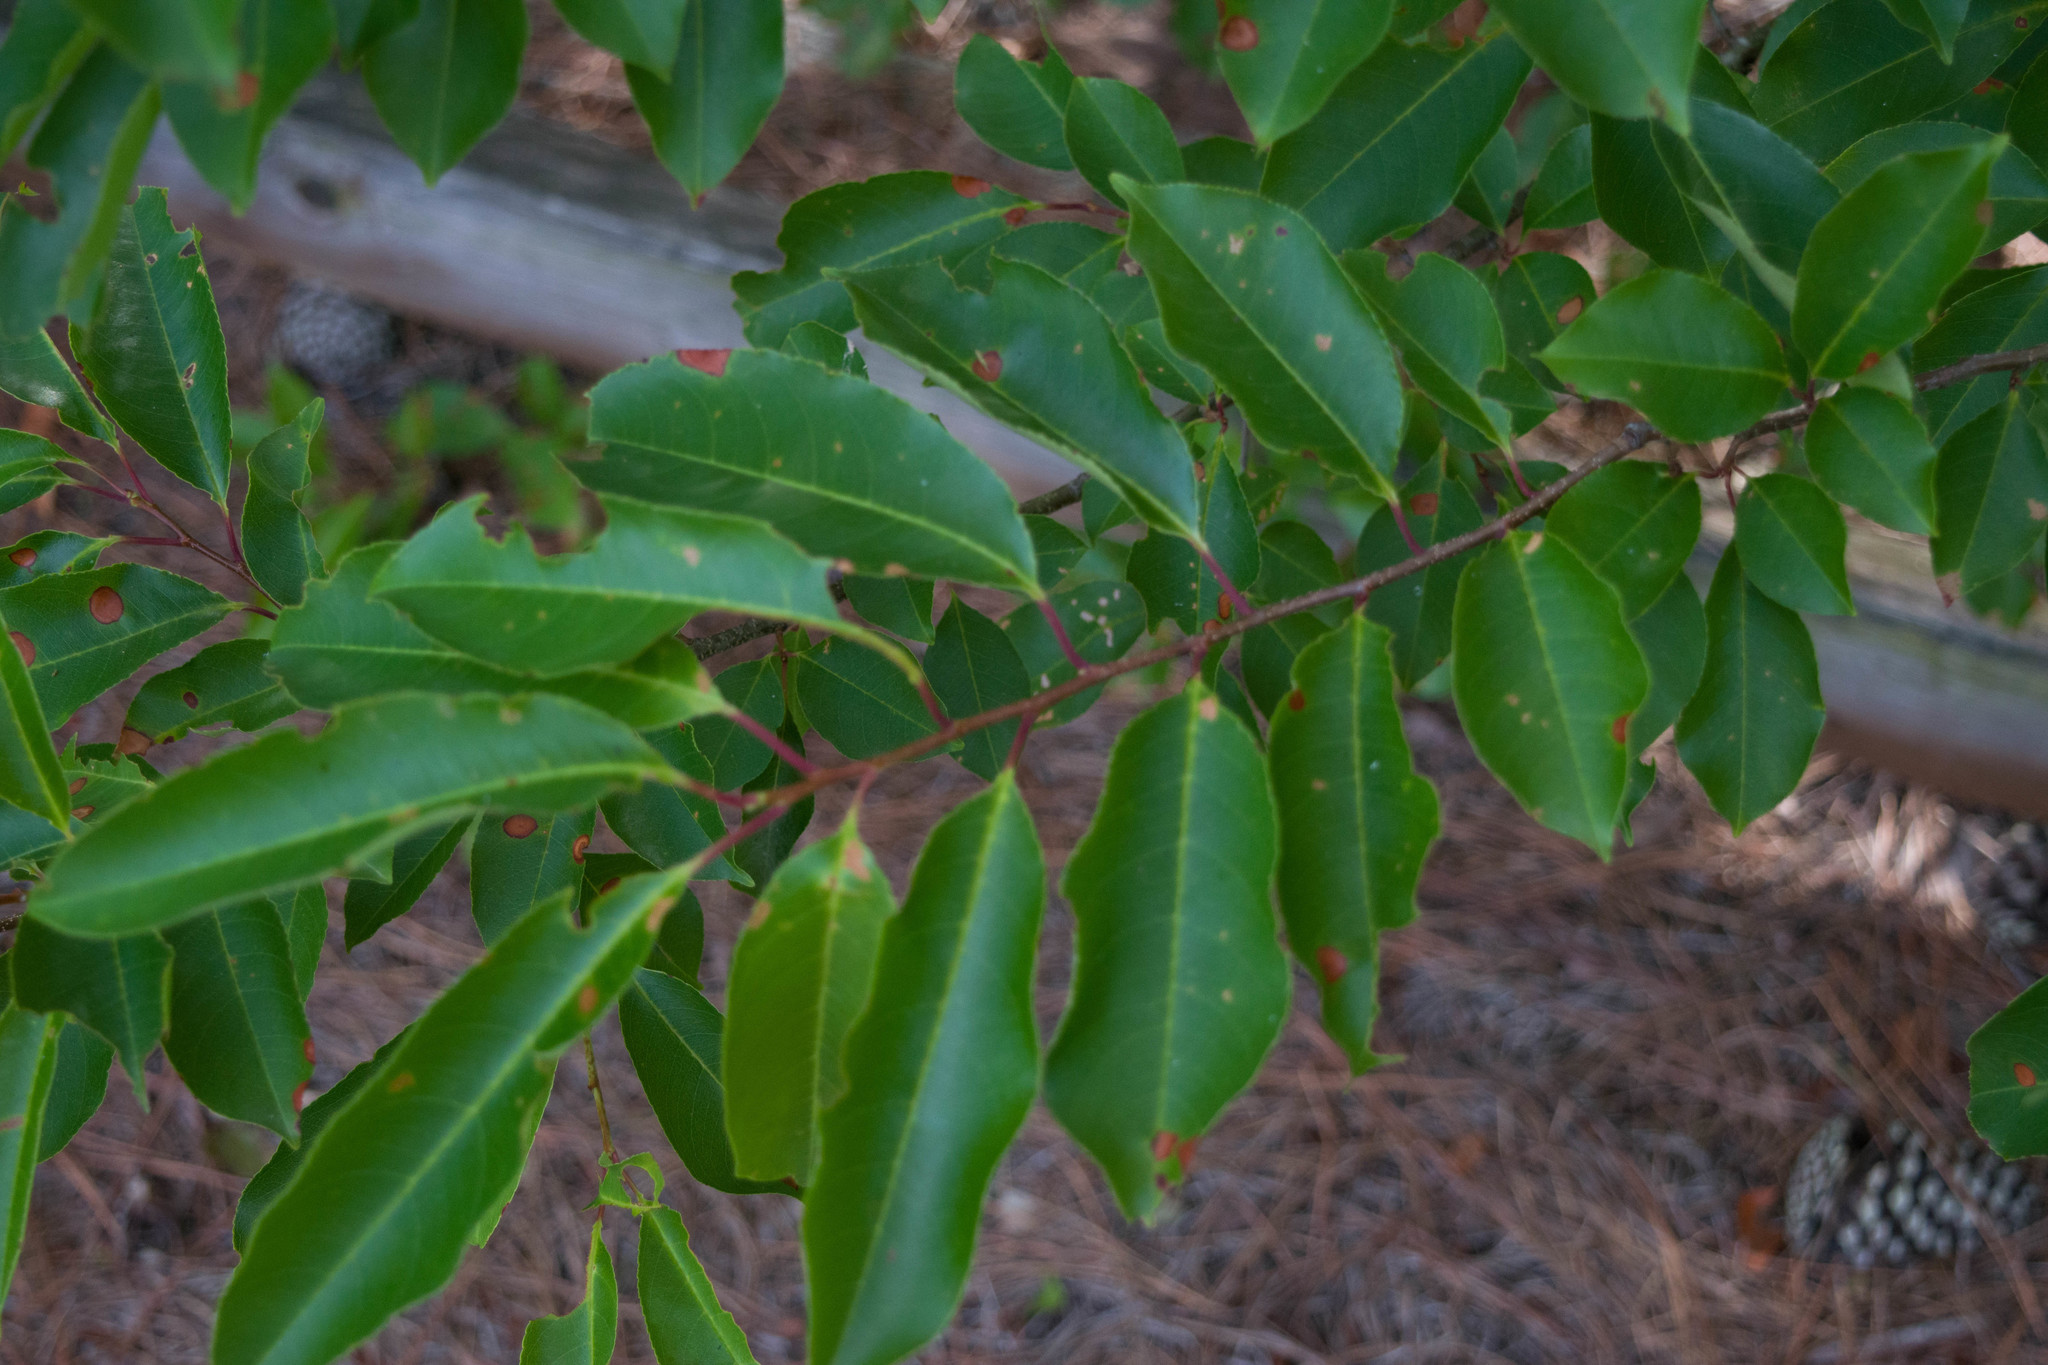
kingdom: Plantae
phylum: Tracheophyta
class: Magnoliopsida
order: Rosales
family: Rosaceae
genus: Prunus
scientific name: Prunus serotina
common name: Black cherry
